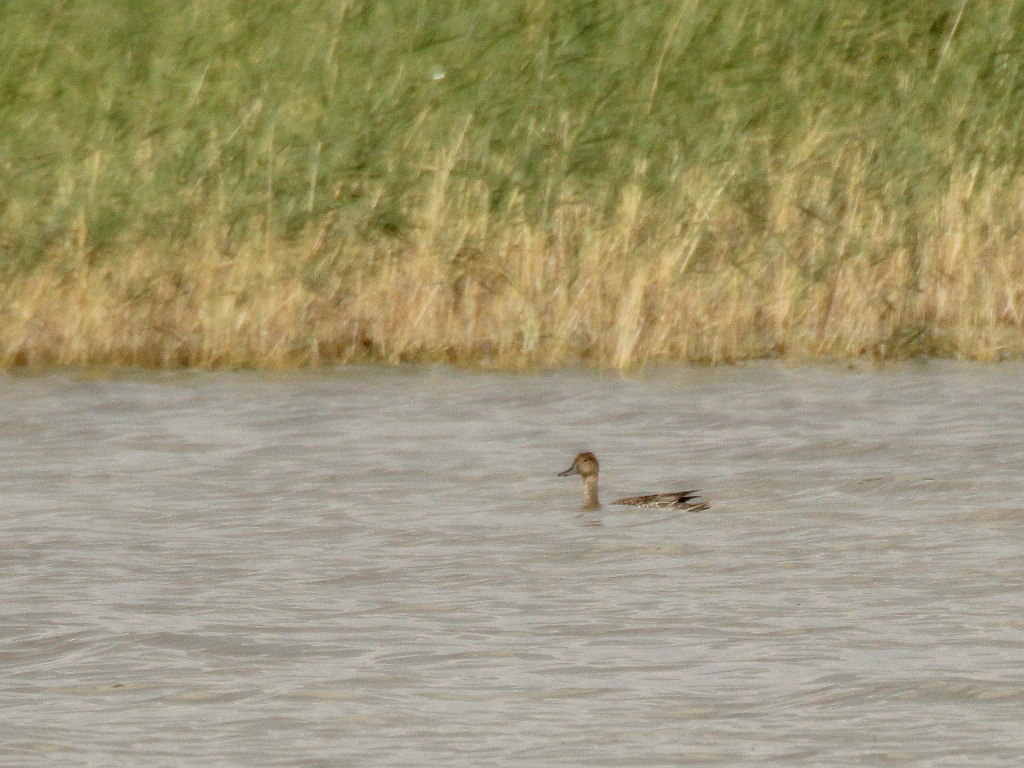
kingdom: Animalia
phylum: Chordata
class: Aves
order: Anseriformes
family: Anatidae
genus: Anas
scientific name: Anas acuta
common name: Northern pintail
